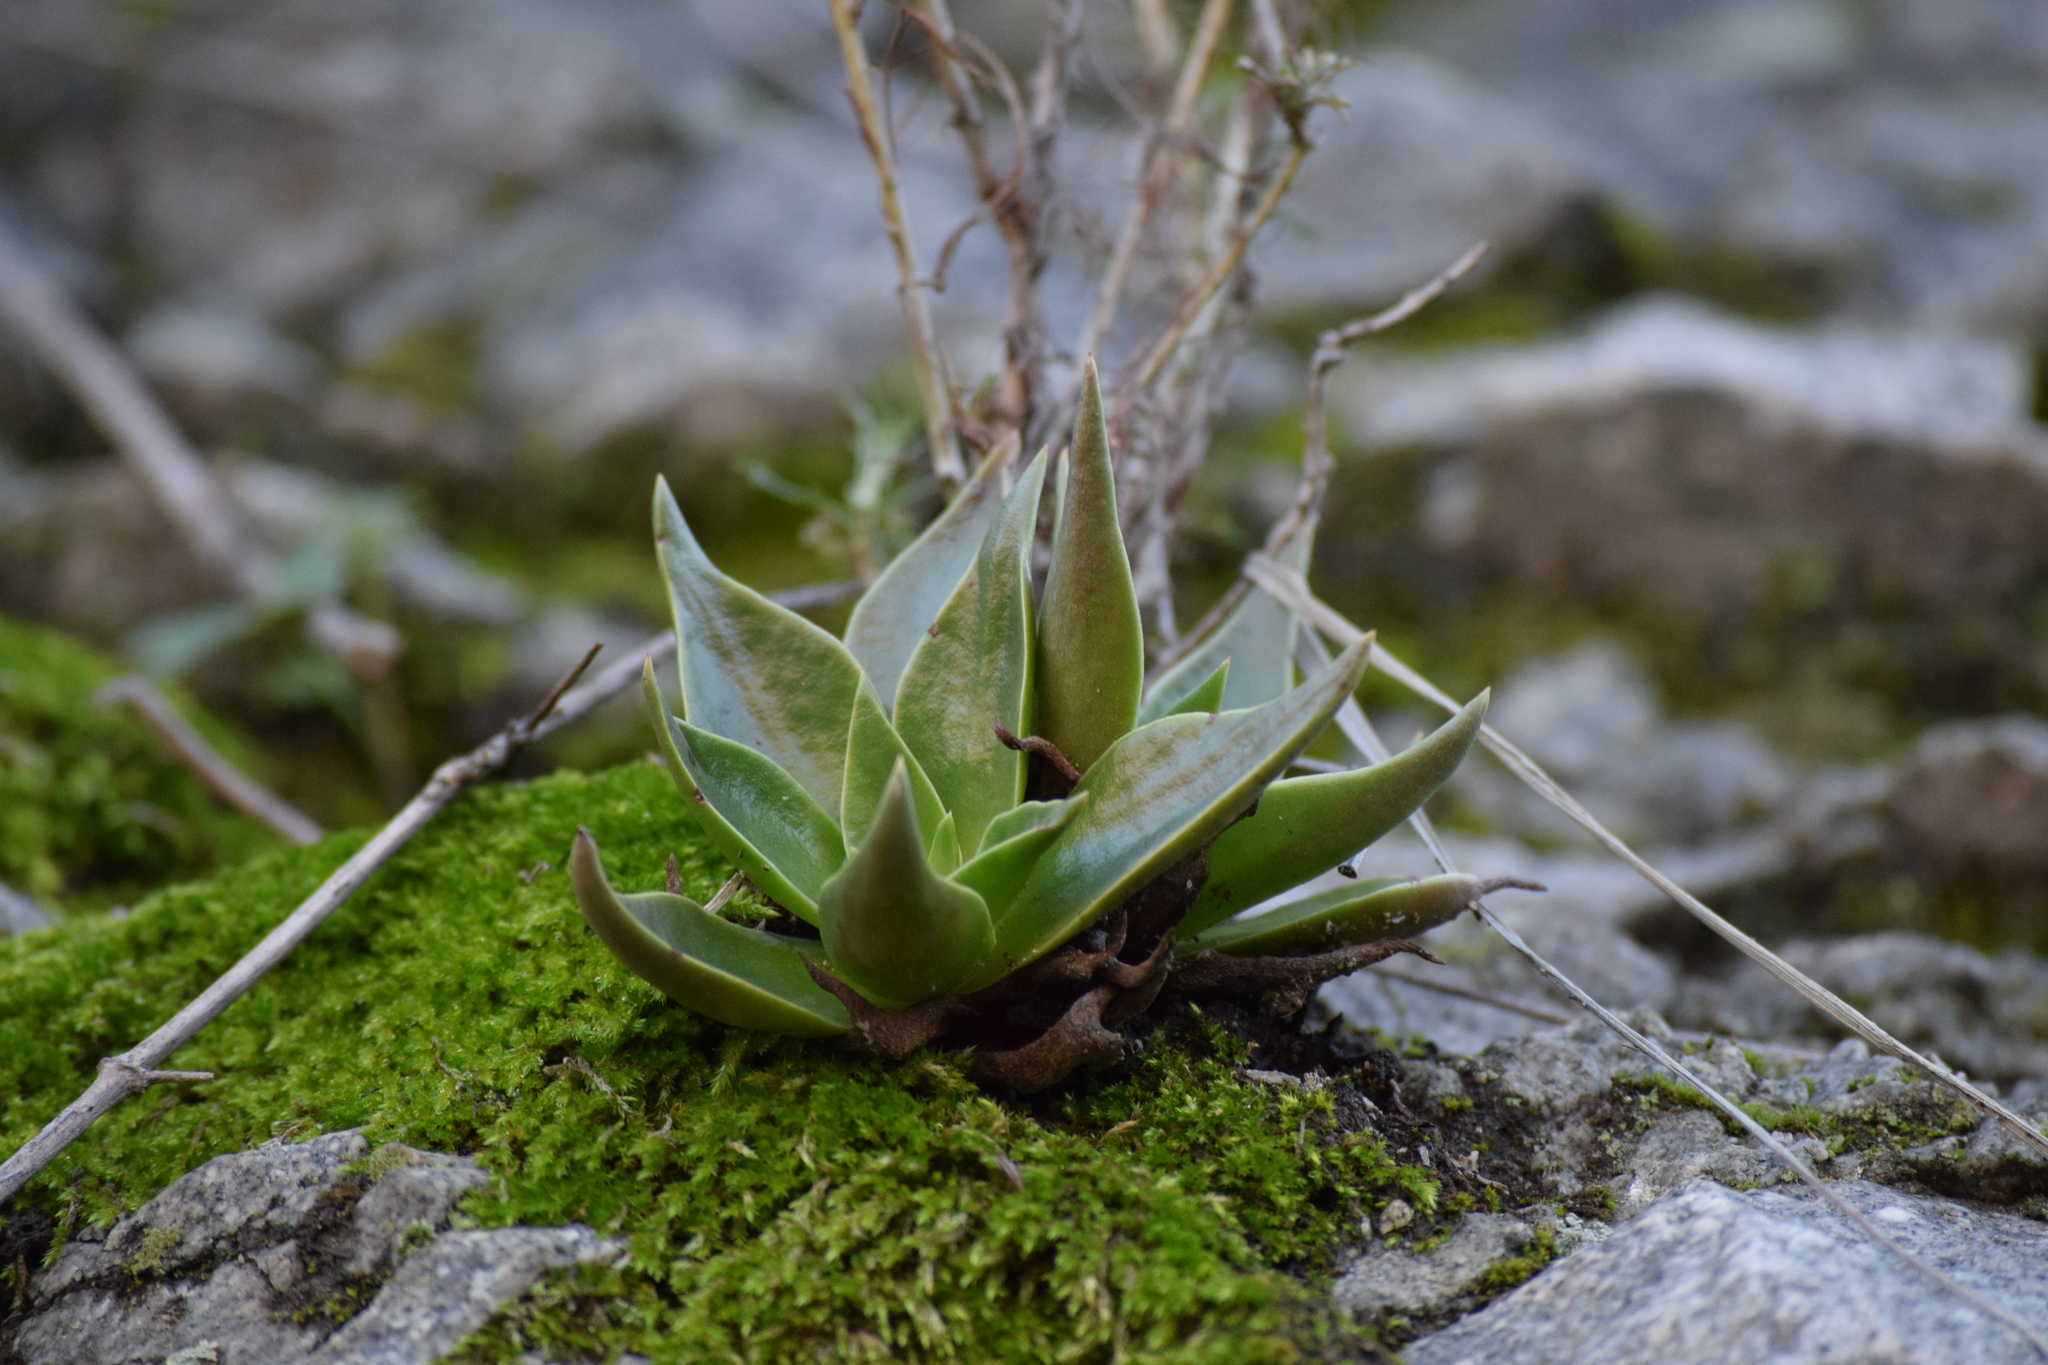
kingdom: Plantae
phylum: Tracheophyta
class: Magnoliopsida
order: Saxifragales
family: Crassulaceae
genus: Dudleya
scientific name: Dudleya lanceolata
